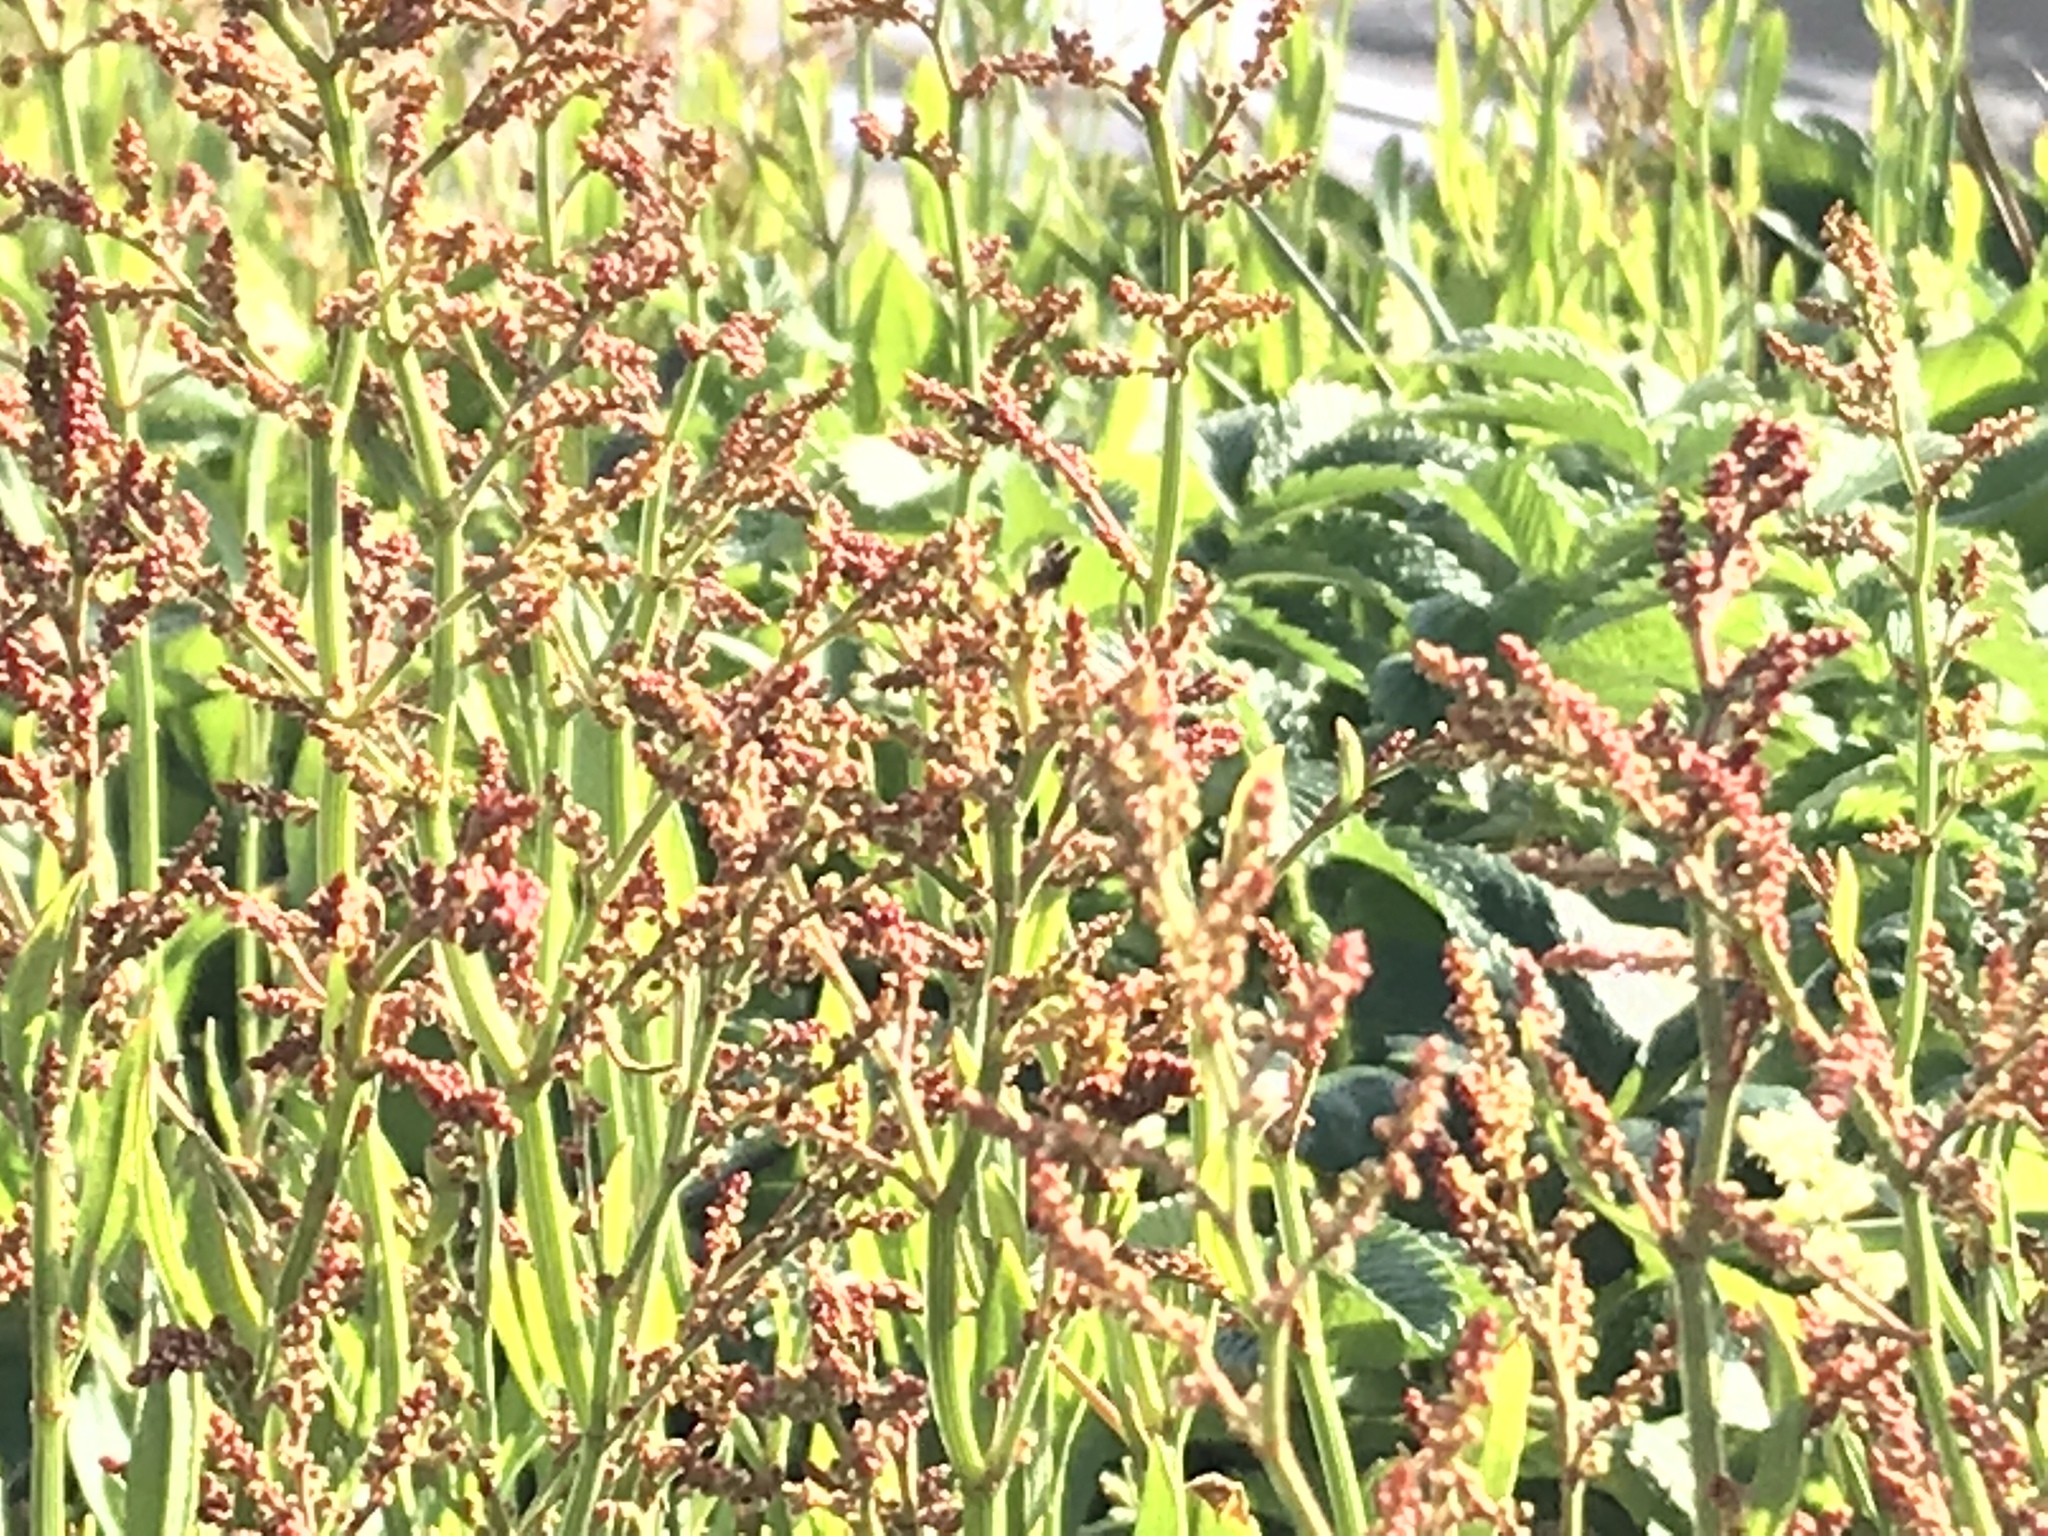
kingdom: Plantae
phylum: Tracheophyta
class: Magnoliopsida
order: Caryophyllales
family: Polygonaceae
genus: Rumex
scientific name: Rumex acetosella
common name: Common sheep sorrel
